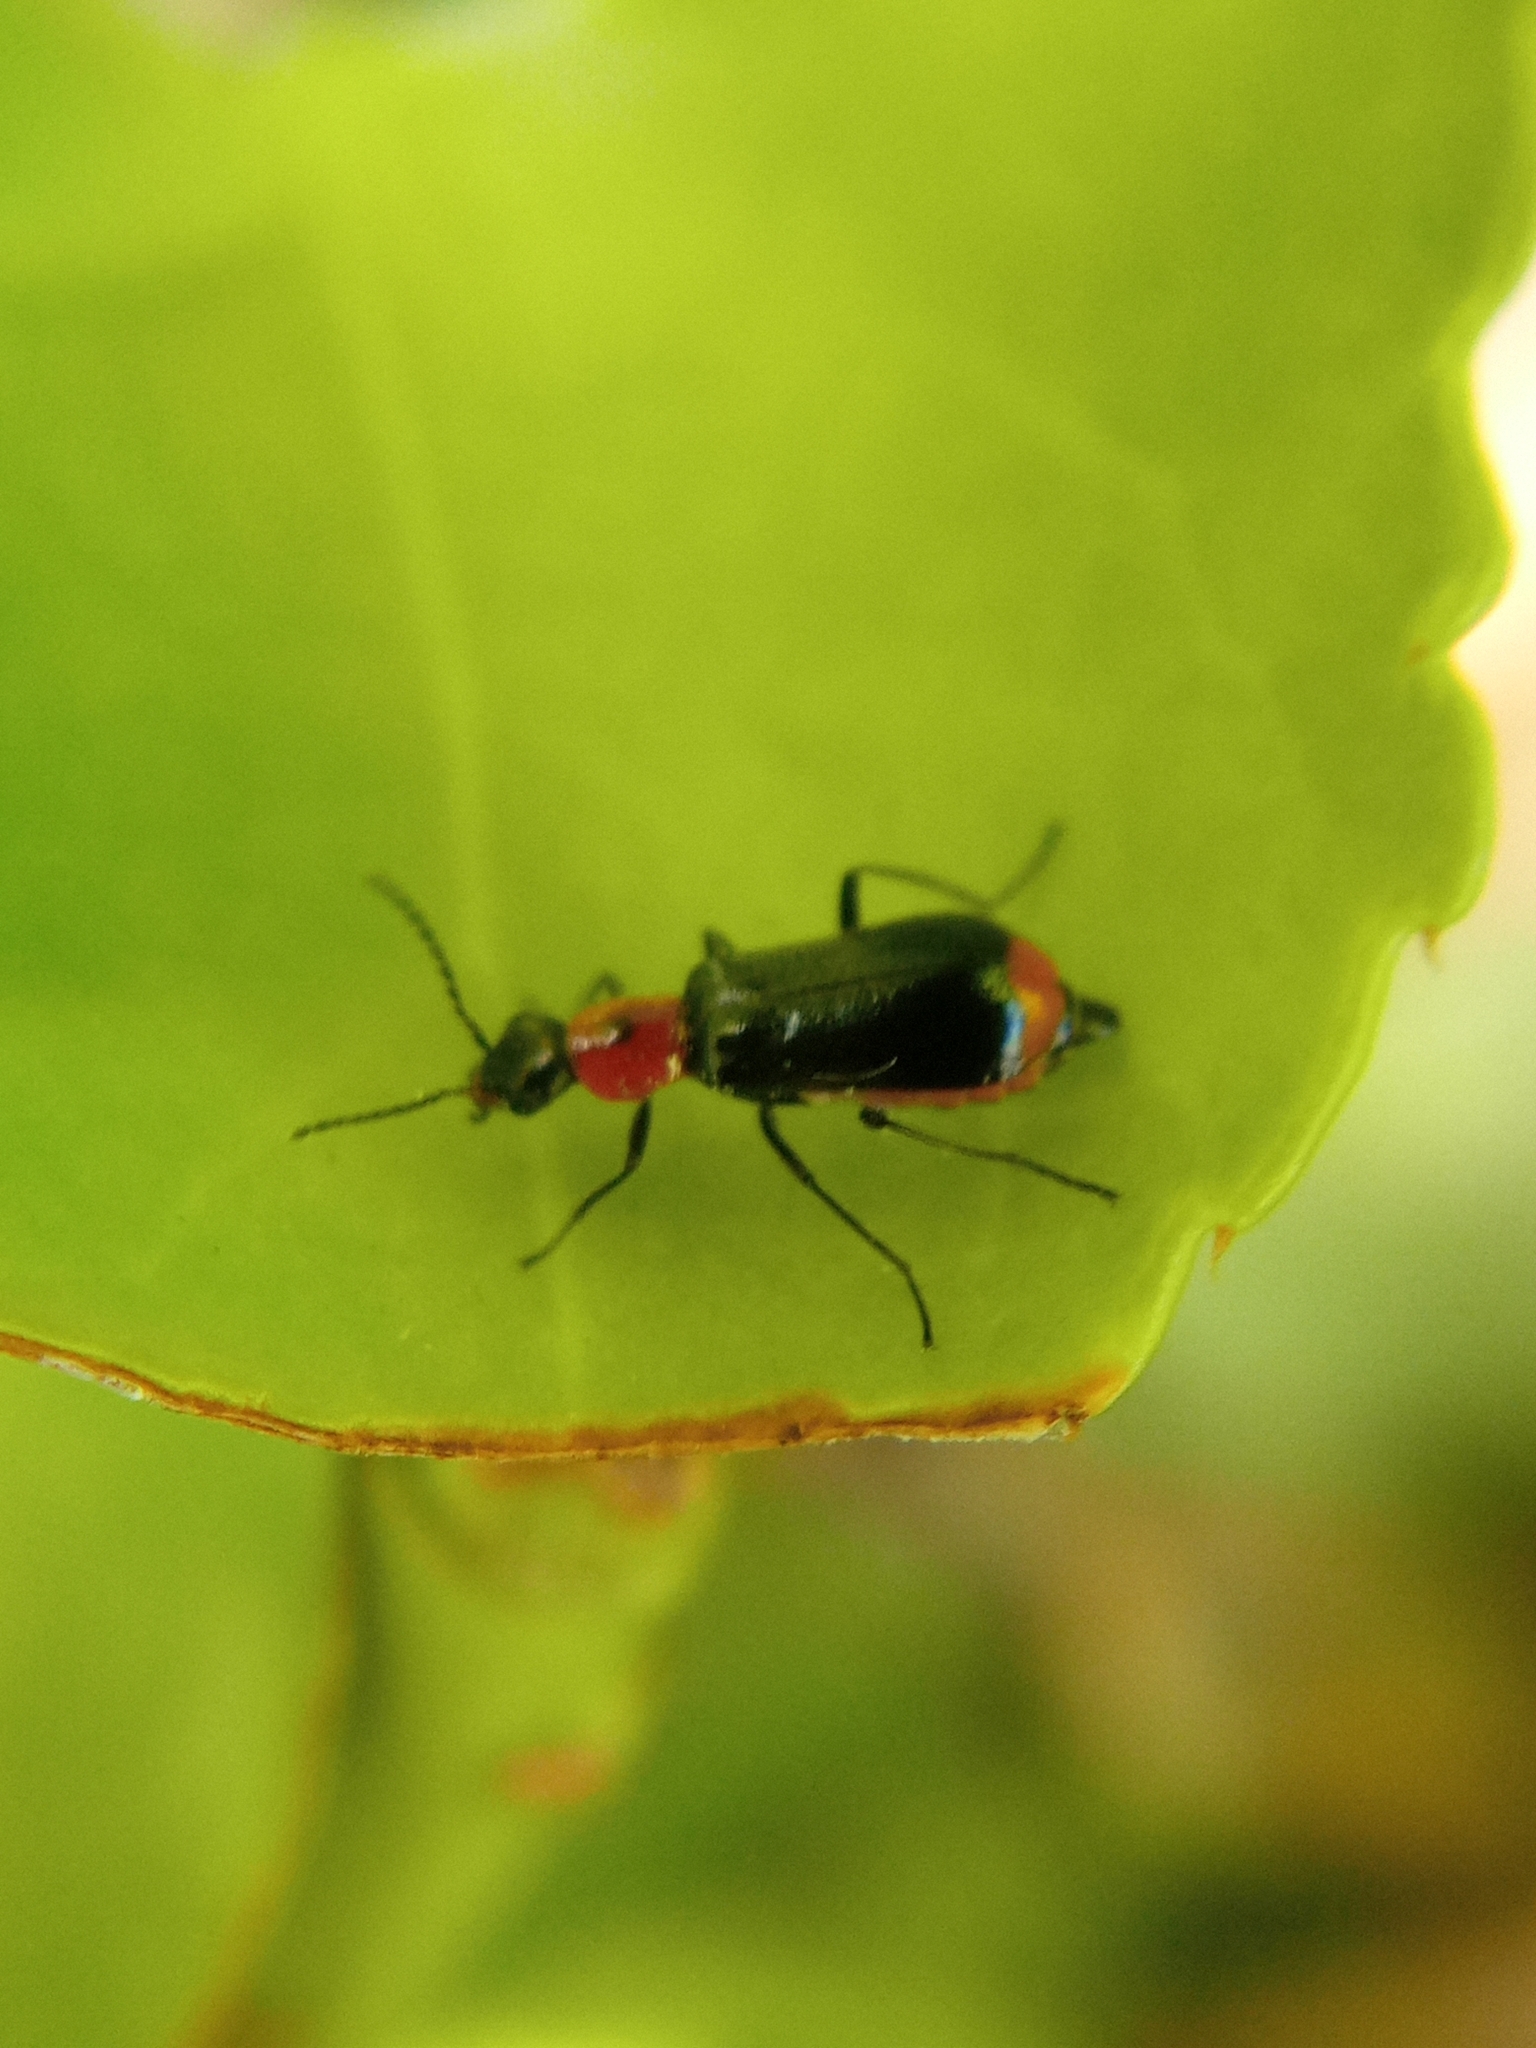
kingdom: Animalia
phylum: Arthropoda
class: Insecta
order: Coleoptera
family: Malachiidae
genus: Attalus
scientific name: Attalus minimus
